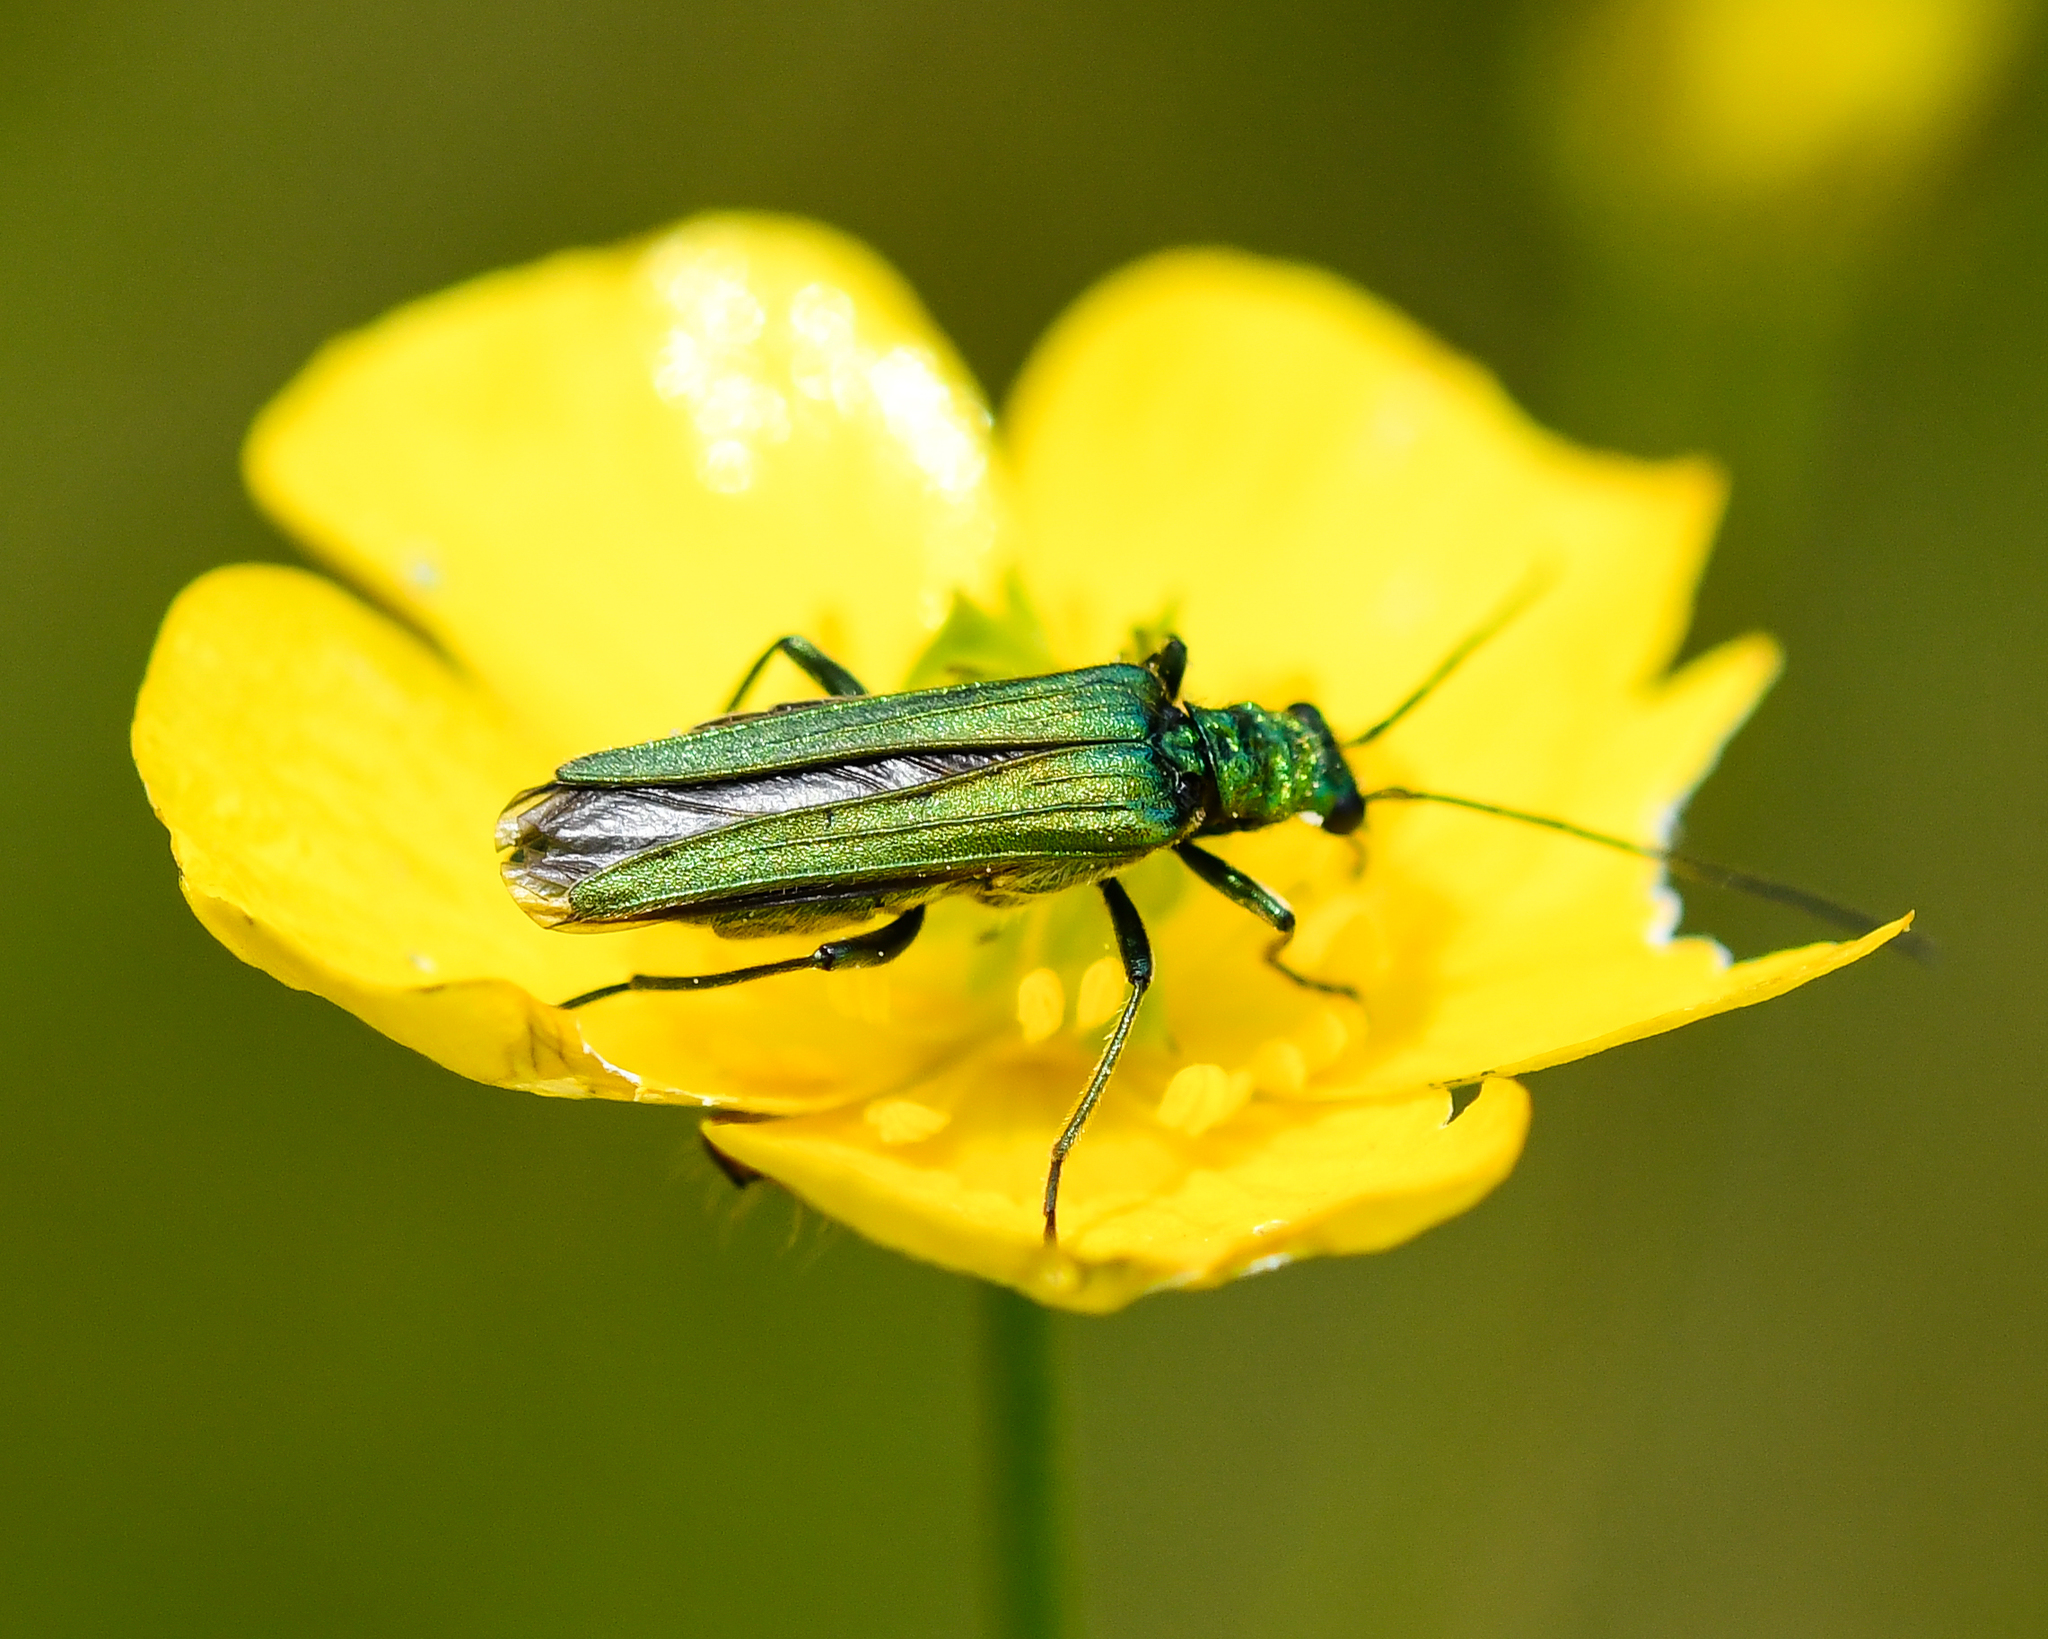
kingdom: Animalia
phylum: Arthropoda
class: Insecta
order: Coleoptera
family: Oedemeridae
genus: Oedemera
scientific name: Oedemera nobilis
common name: Swollen-thighed beetle
